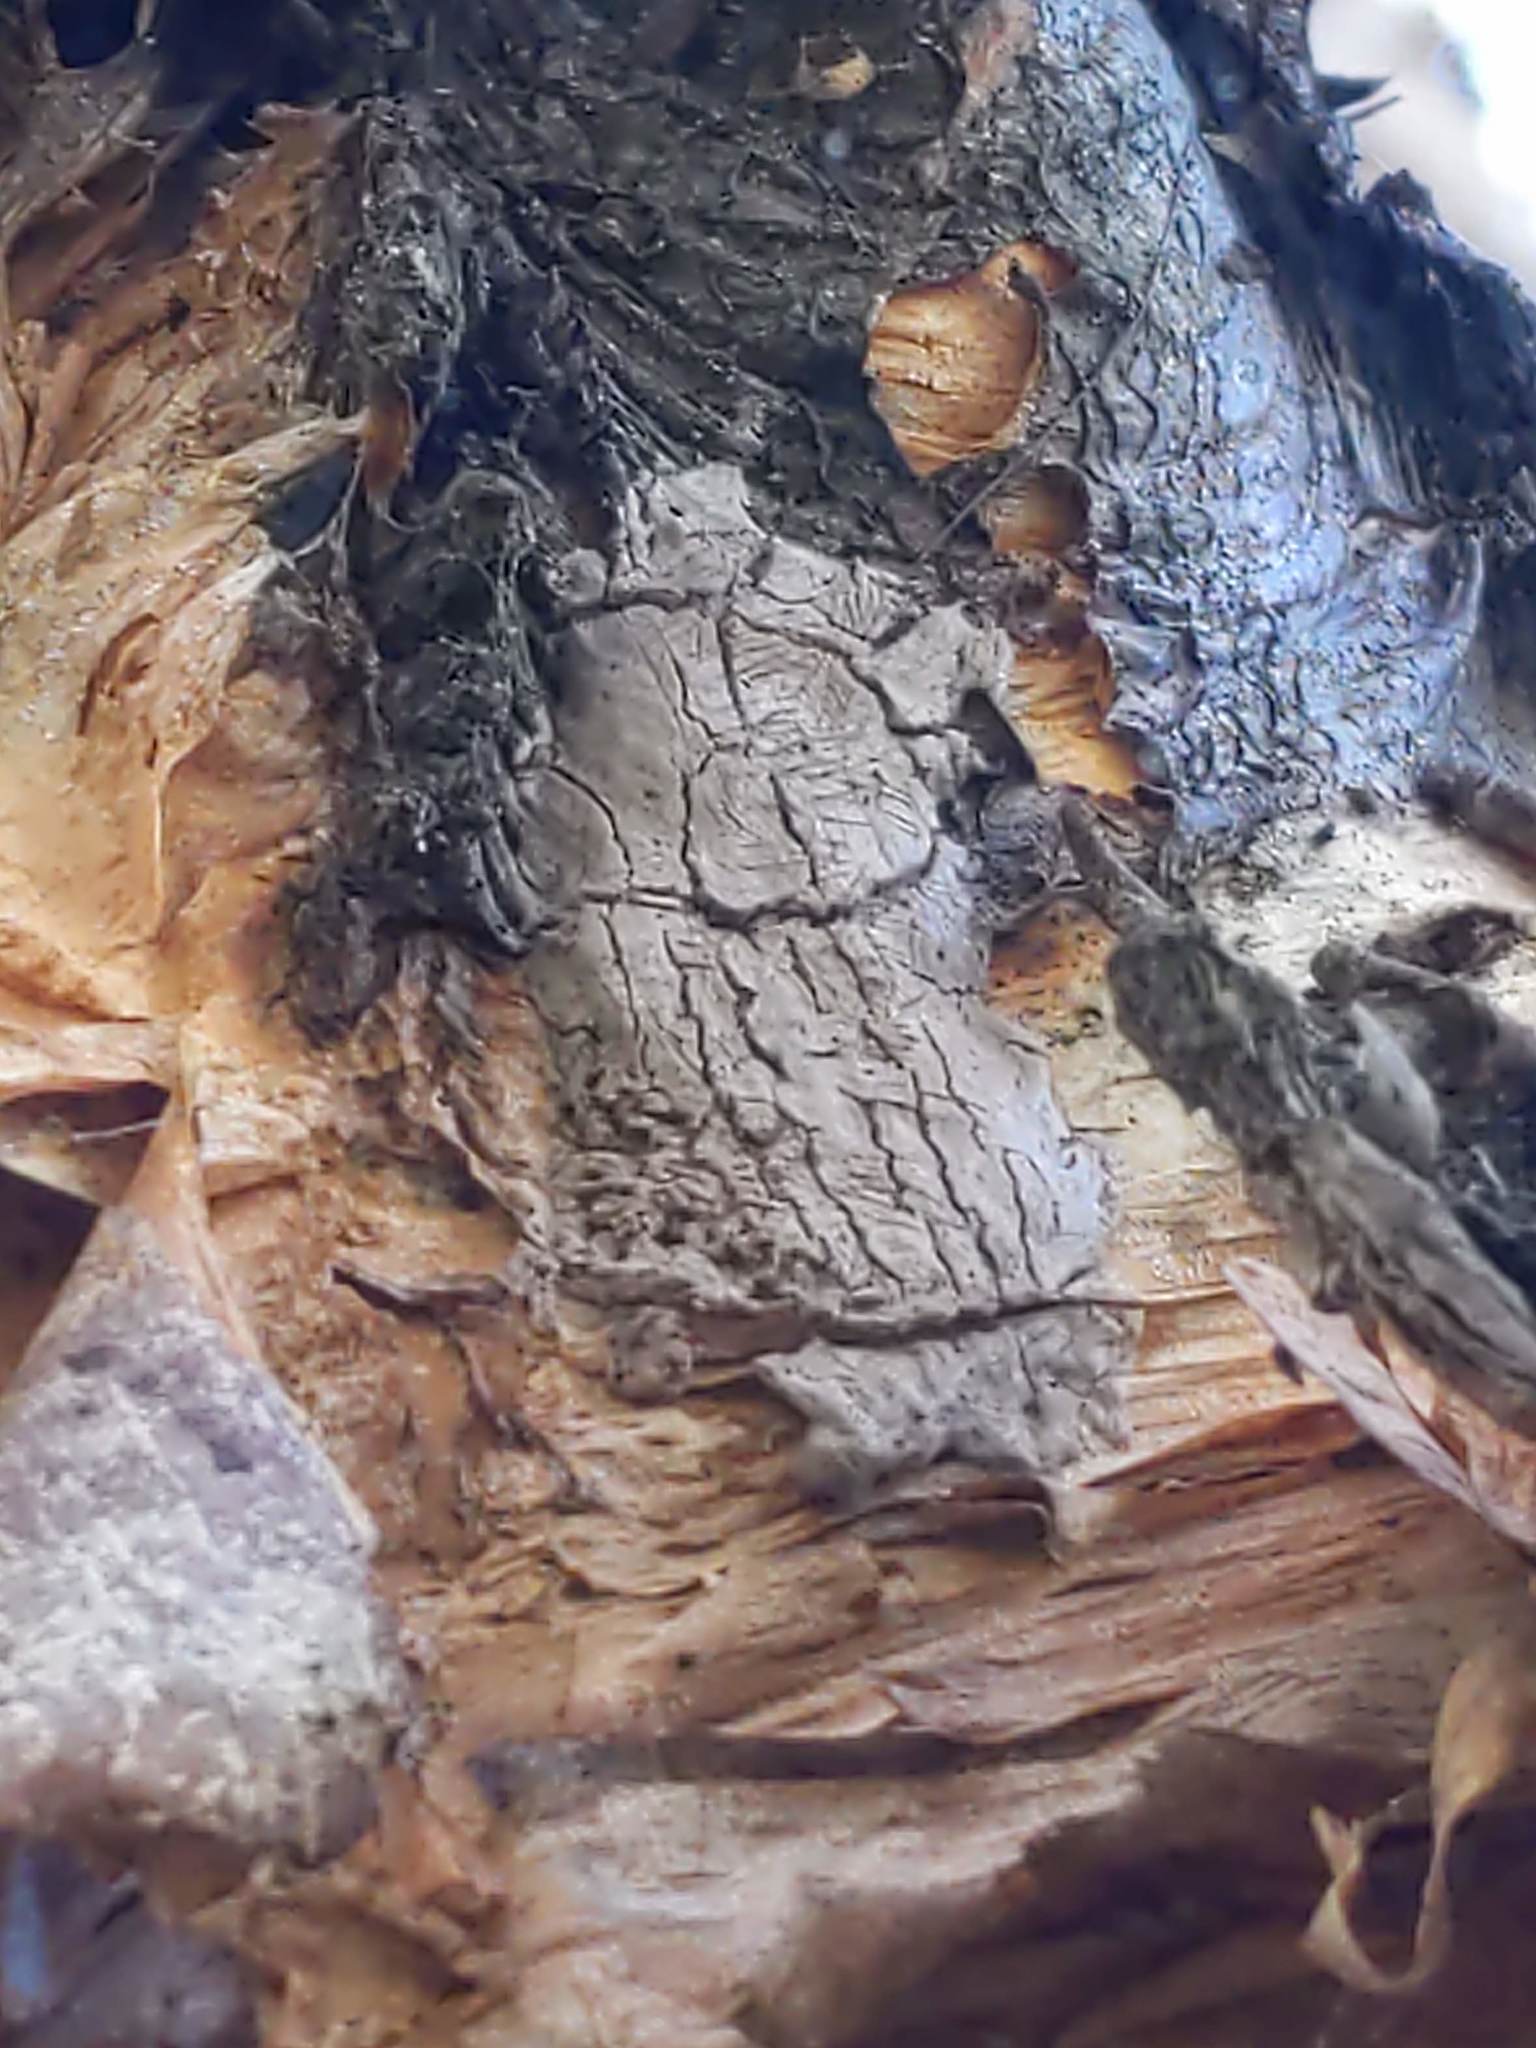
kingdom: Animalia
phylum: Arthropoda
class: Insecta
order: Hemiptera
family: Fulgoridae
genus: Lycorma
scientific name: Lycorma delicatula
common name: Spotted lanternfly
